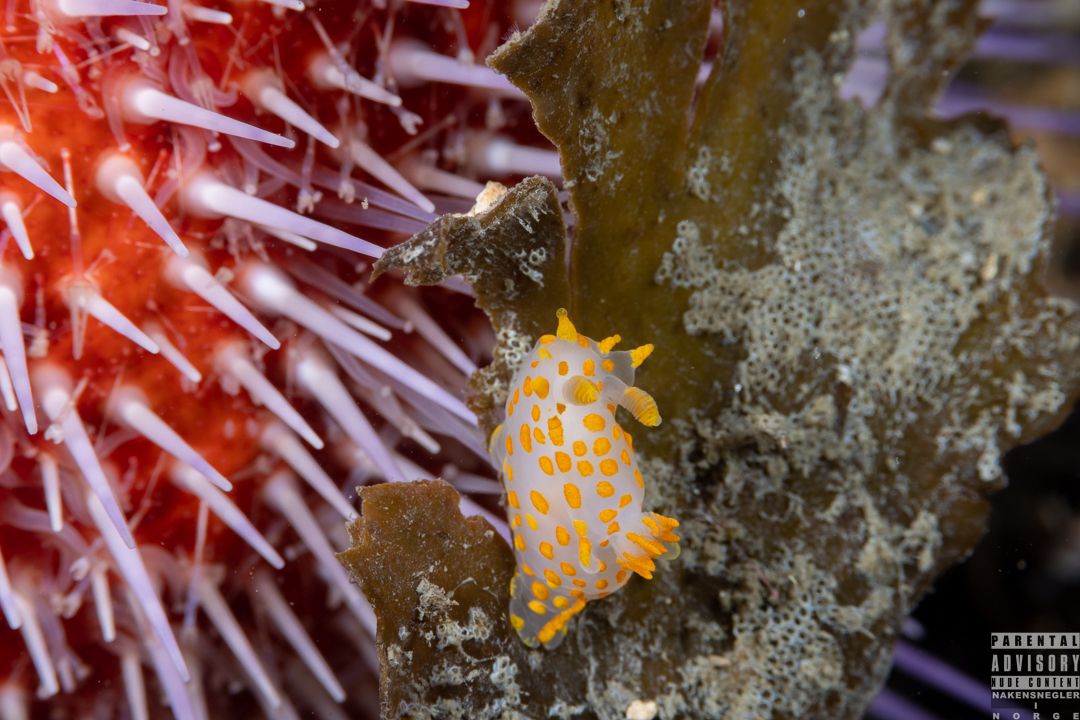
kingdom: Animalia
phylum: Mollusca
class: Gastropoda
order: Nudibranchia
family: Polyceridae
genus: Polycera
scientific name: Polycera quadrilineata
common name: Four-striped polycera
